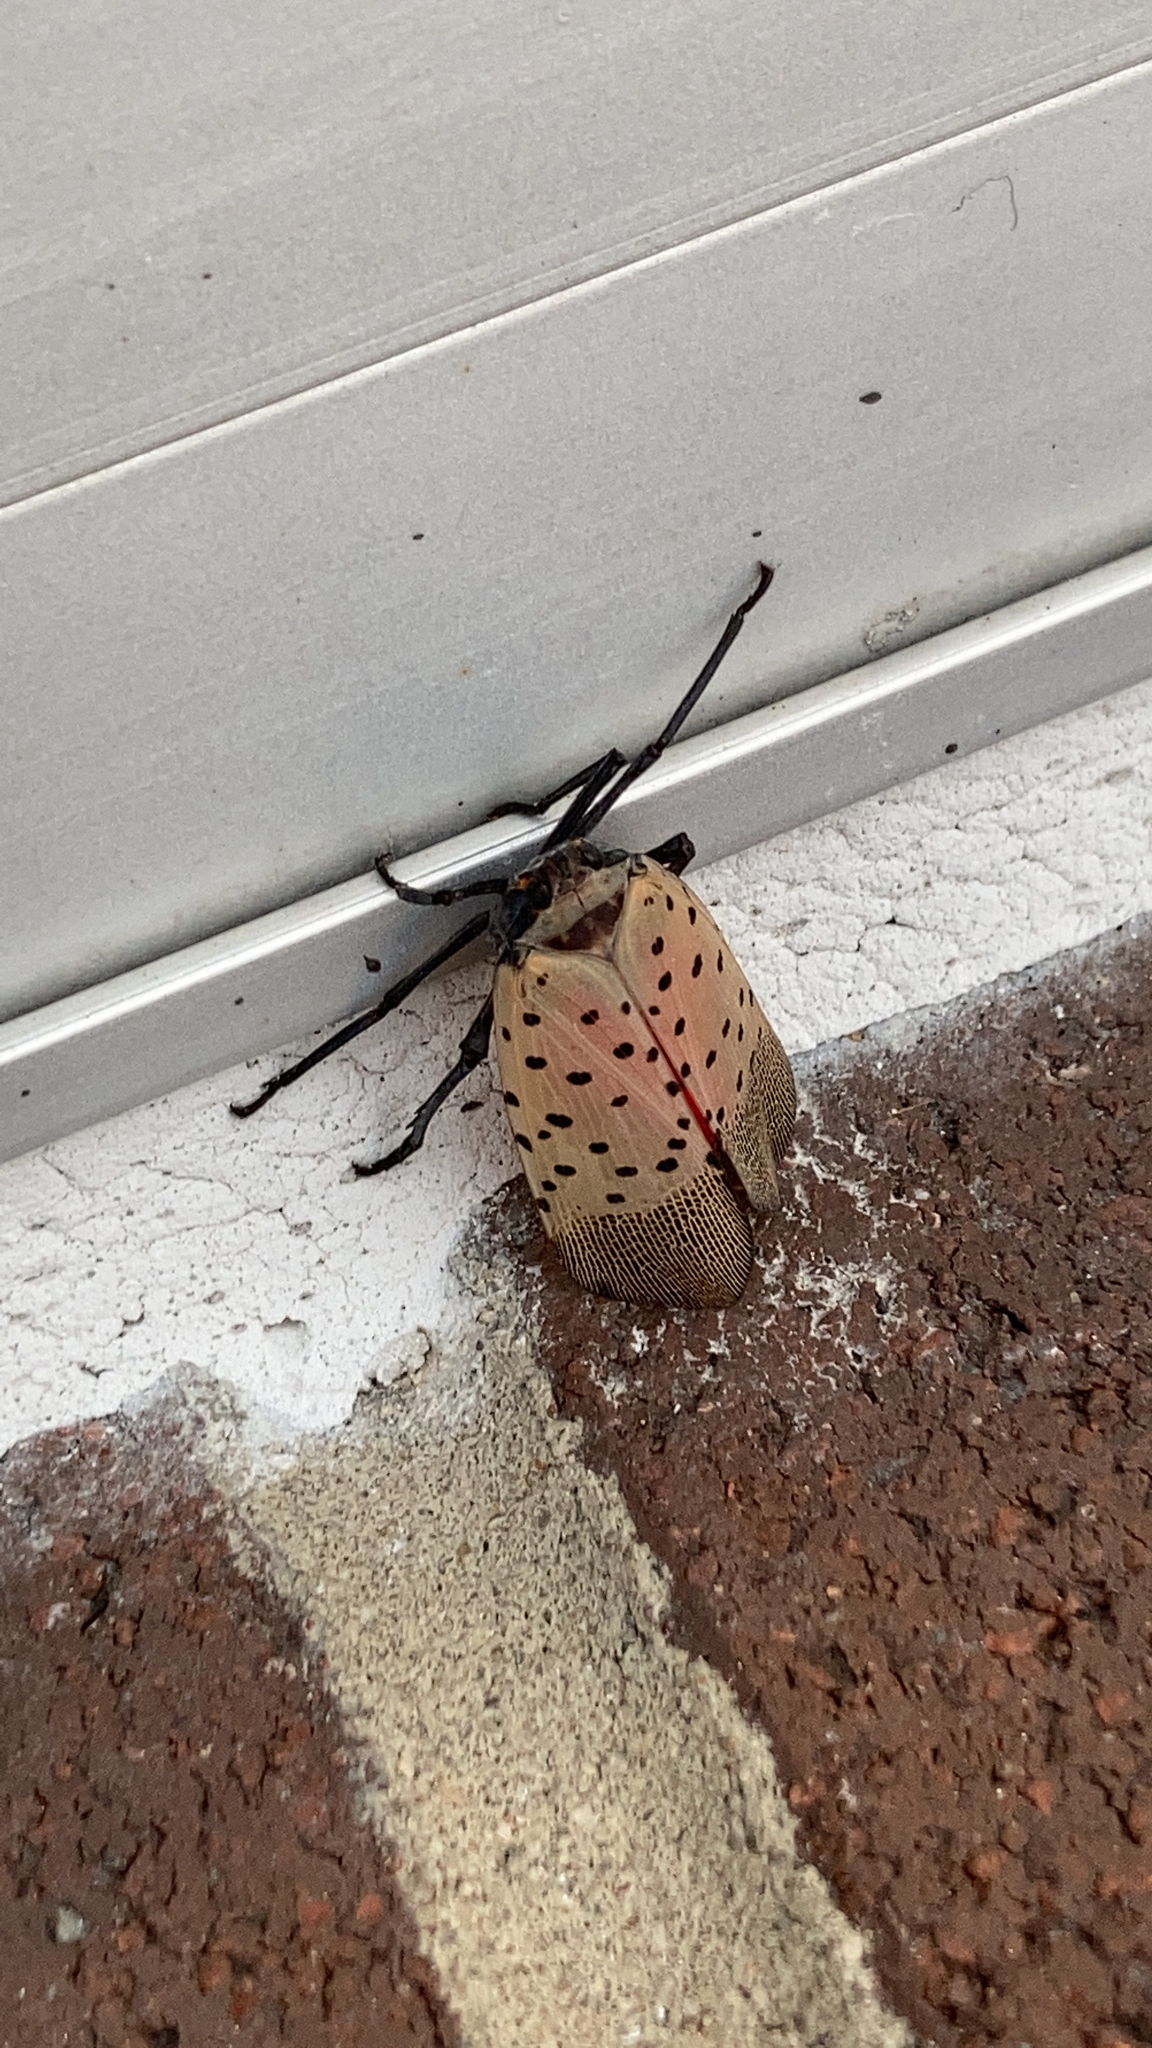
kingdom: Animalia
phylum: Arthropoda
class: Insecta
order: Hemiptera
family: Fulgoridae
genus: Lycorma
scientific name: Lycorma delicatula
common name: Spotted lanternfly
